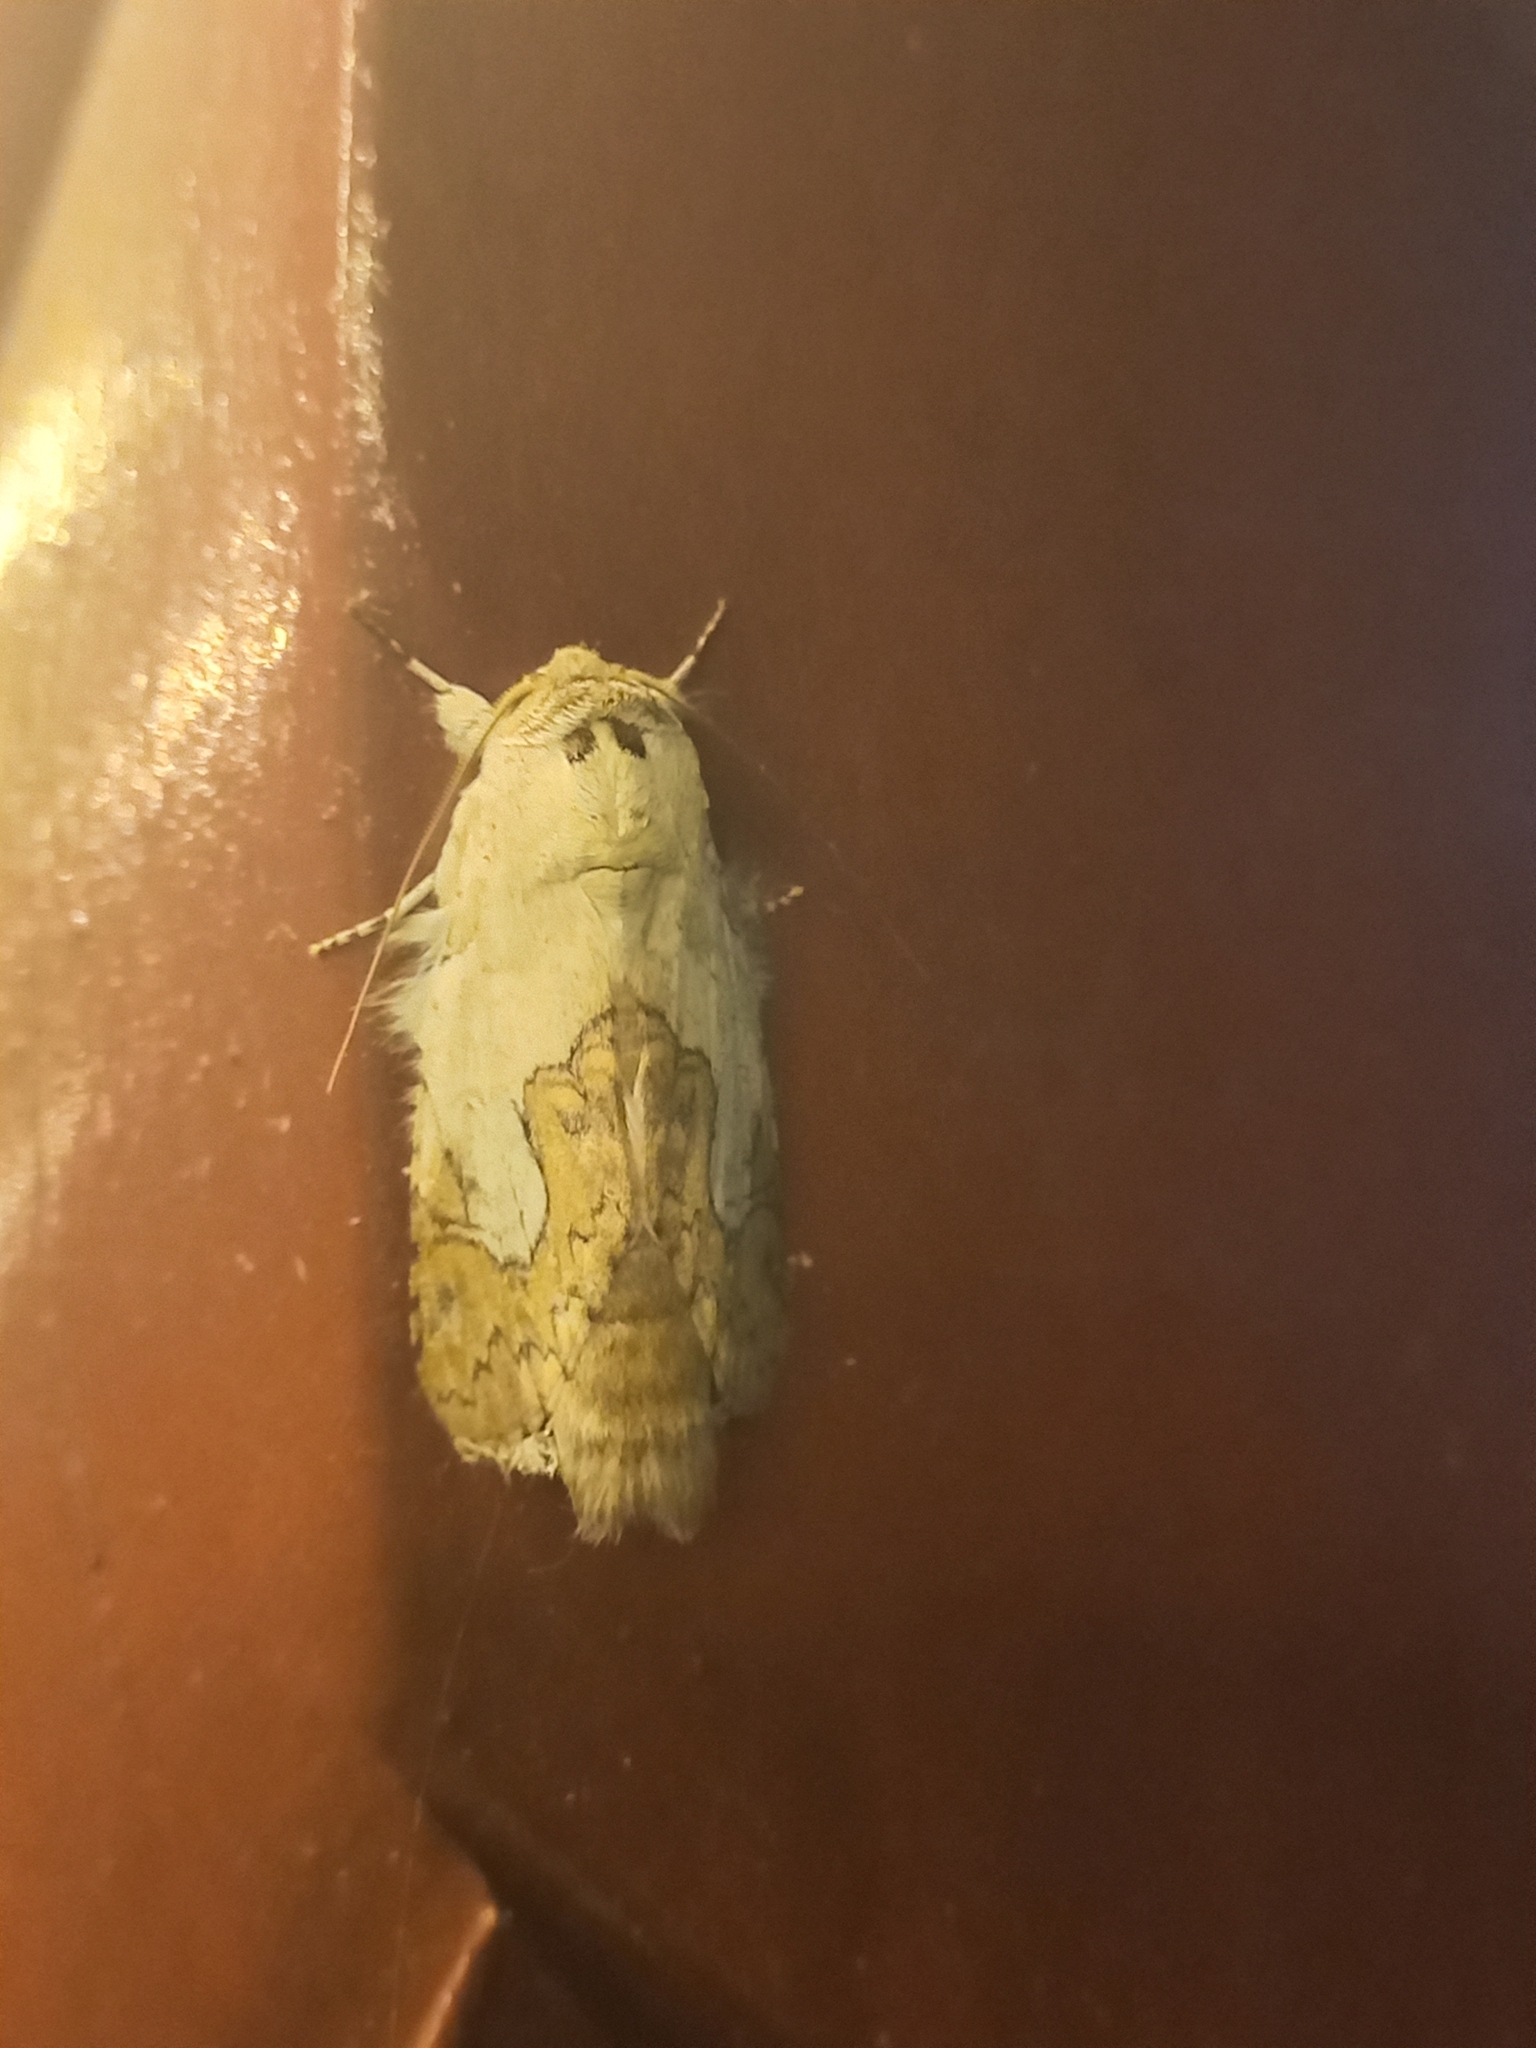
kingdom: Animalia
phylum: Arthropoda
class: Insecta
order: Lepidoptera
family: Notodontidae
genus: Ginaldia
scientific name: Ginaldia
